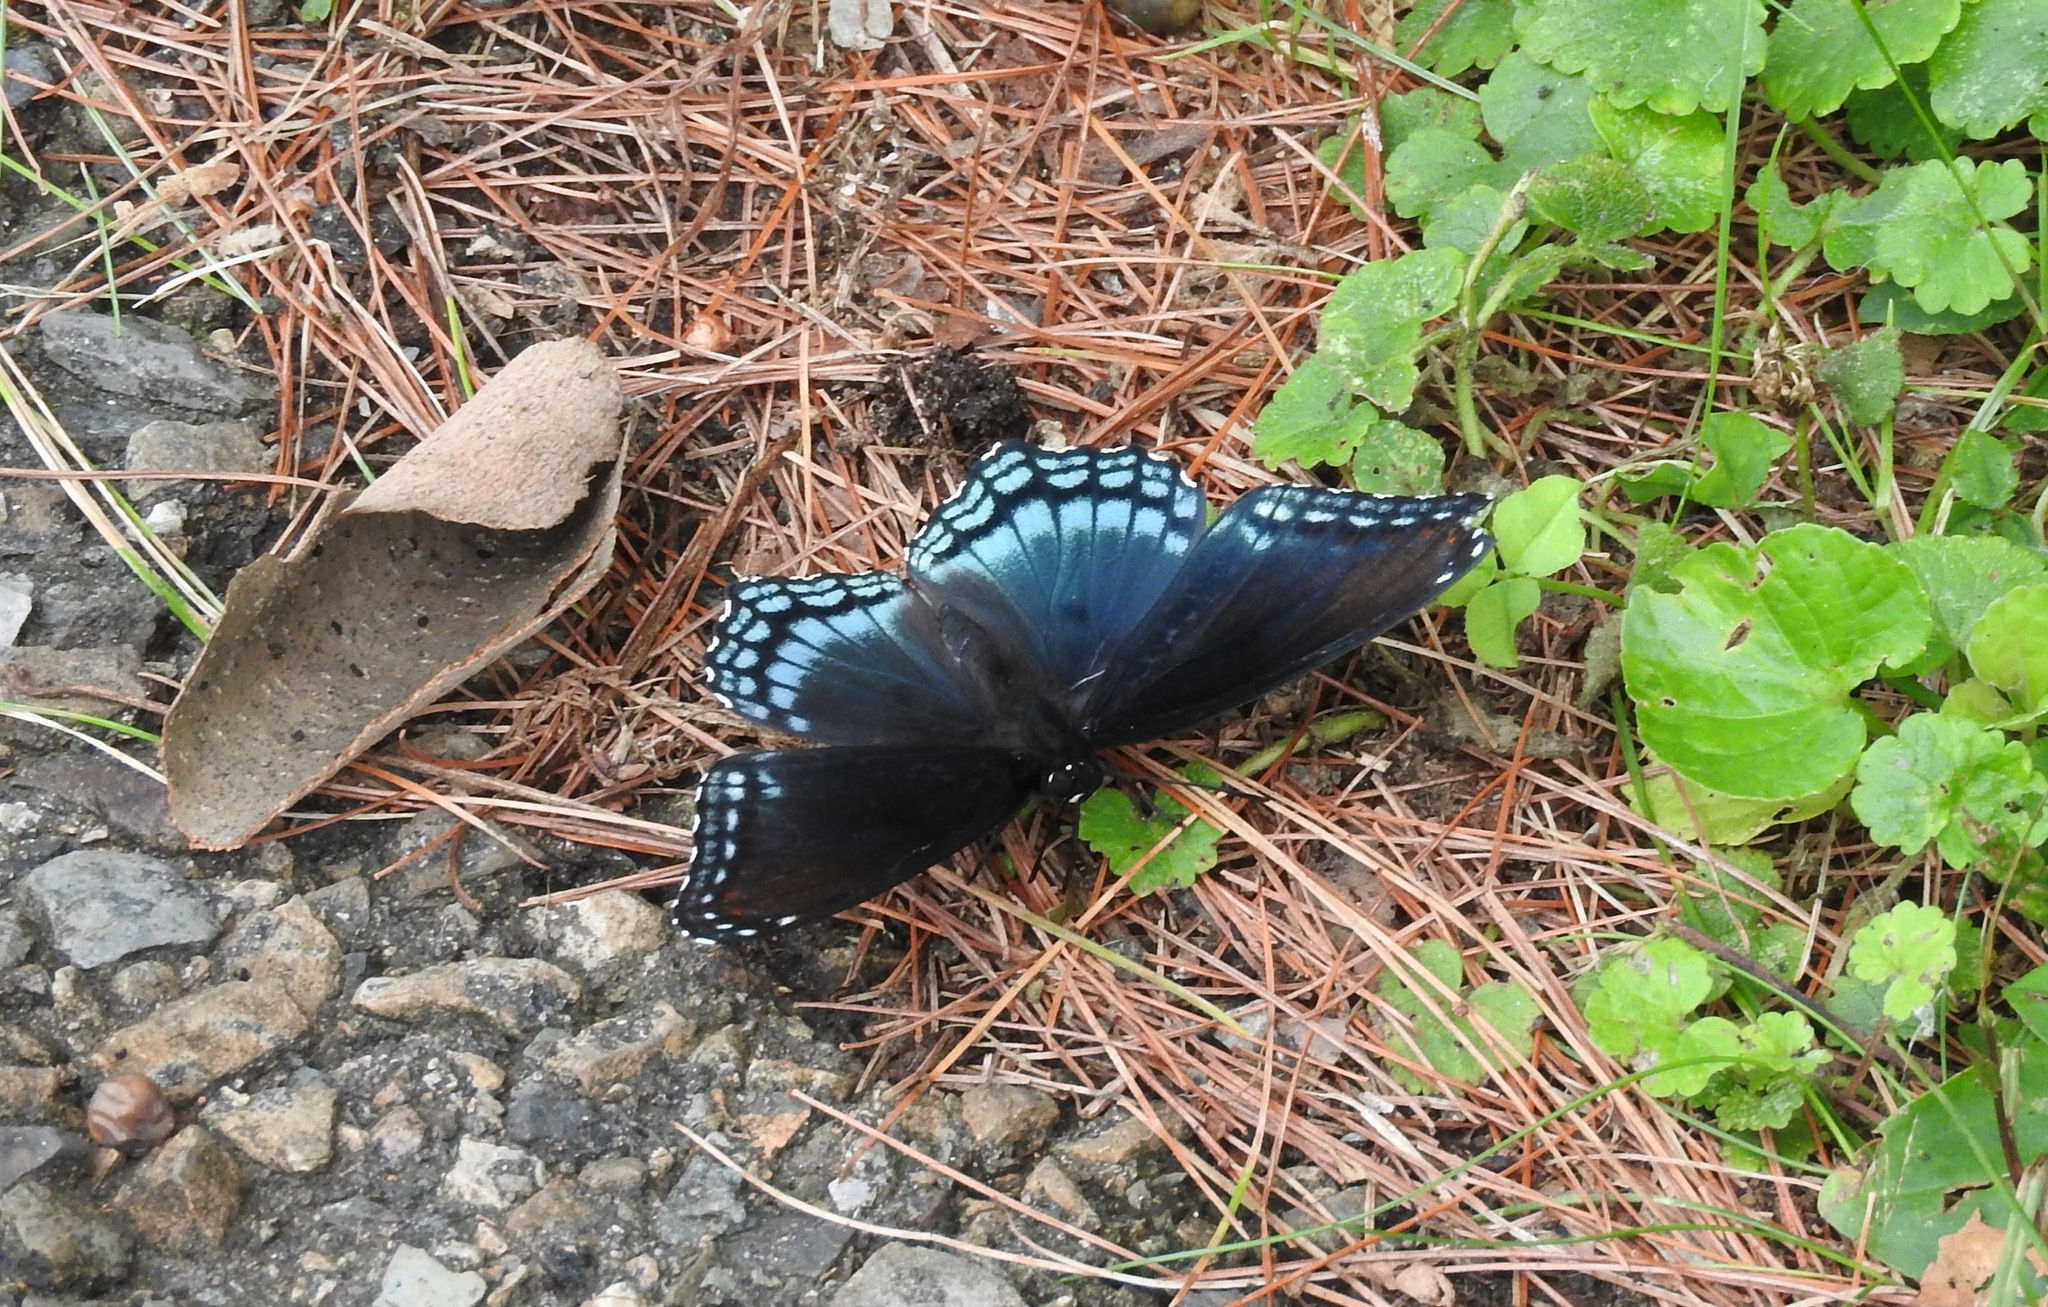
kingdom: Animalia
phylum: Arthropoda
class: Insecta
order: Lepidoptera
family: Nymphalidae
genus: Limenitis
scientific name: Limenitis astyanax
